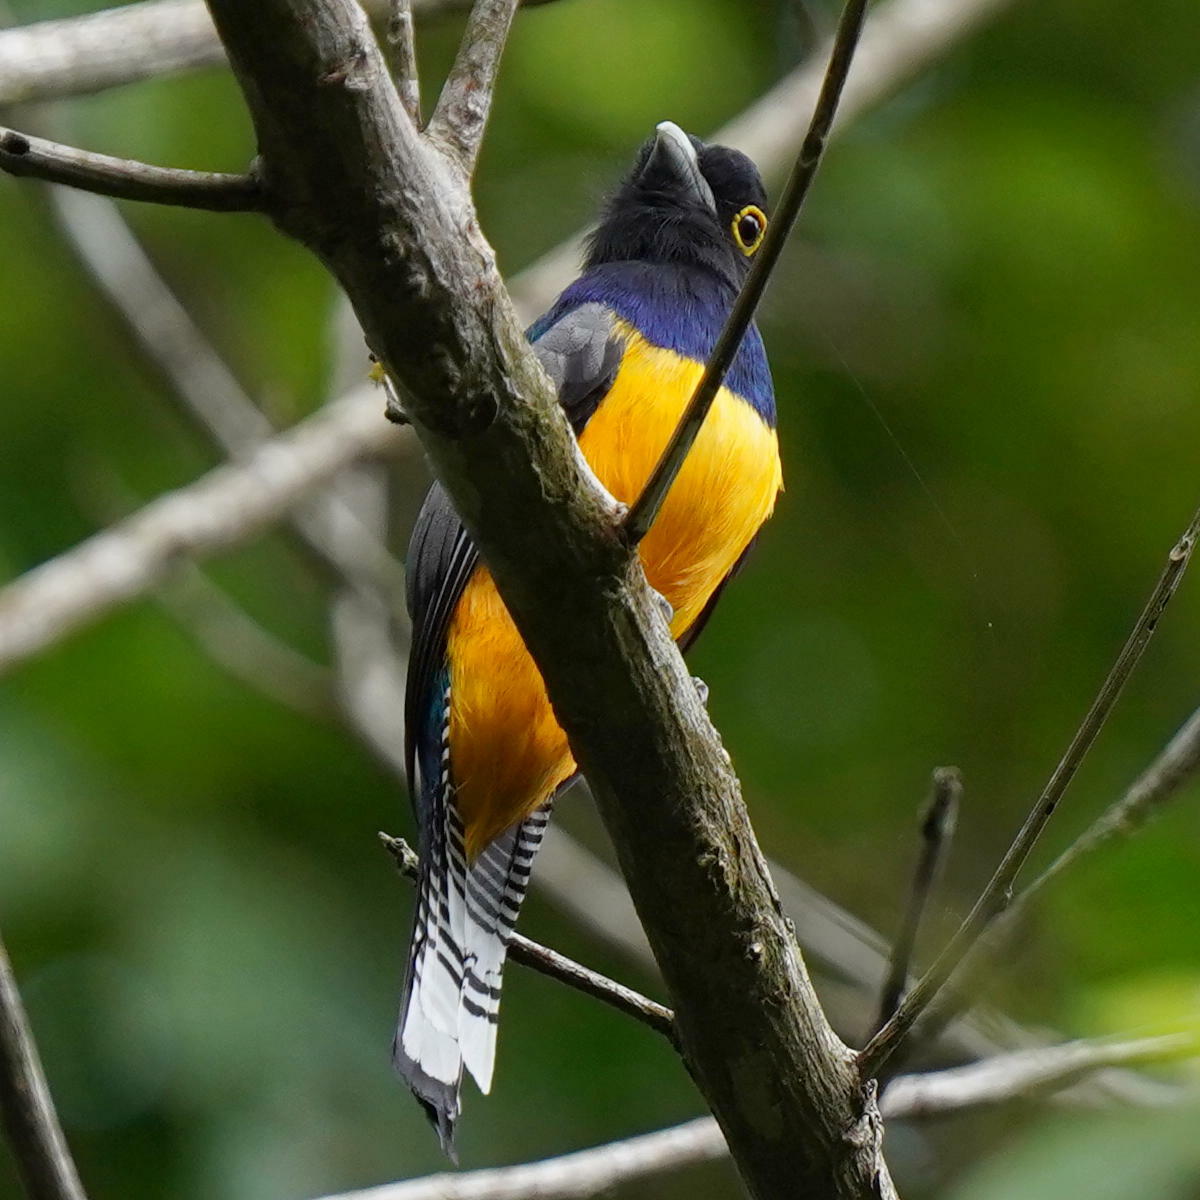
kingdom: Animalia
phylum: Chordata
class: Aves
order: Trogoniformes
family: Trogonidae
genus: Trogon
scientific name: Trogon caligatus
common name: Gartered trogon
